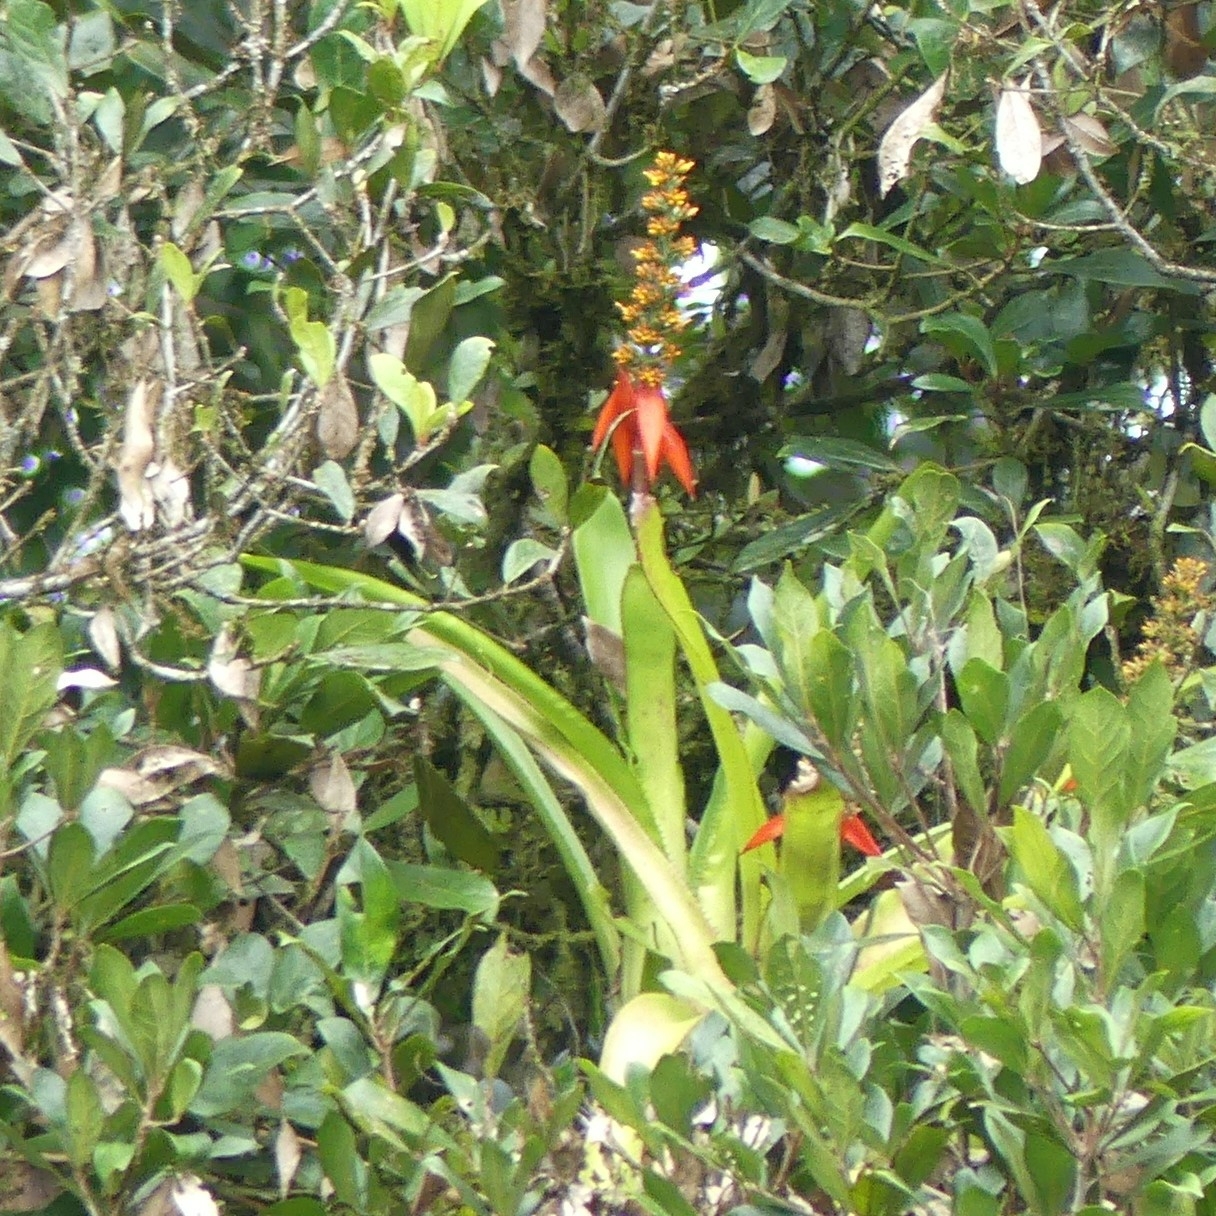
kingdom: Plantae
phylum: Tracheophyta
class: Liliopsida
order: Poales
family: Bromeliaceae
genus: Aechmea
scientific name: Aechmea mertensii
